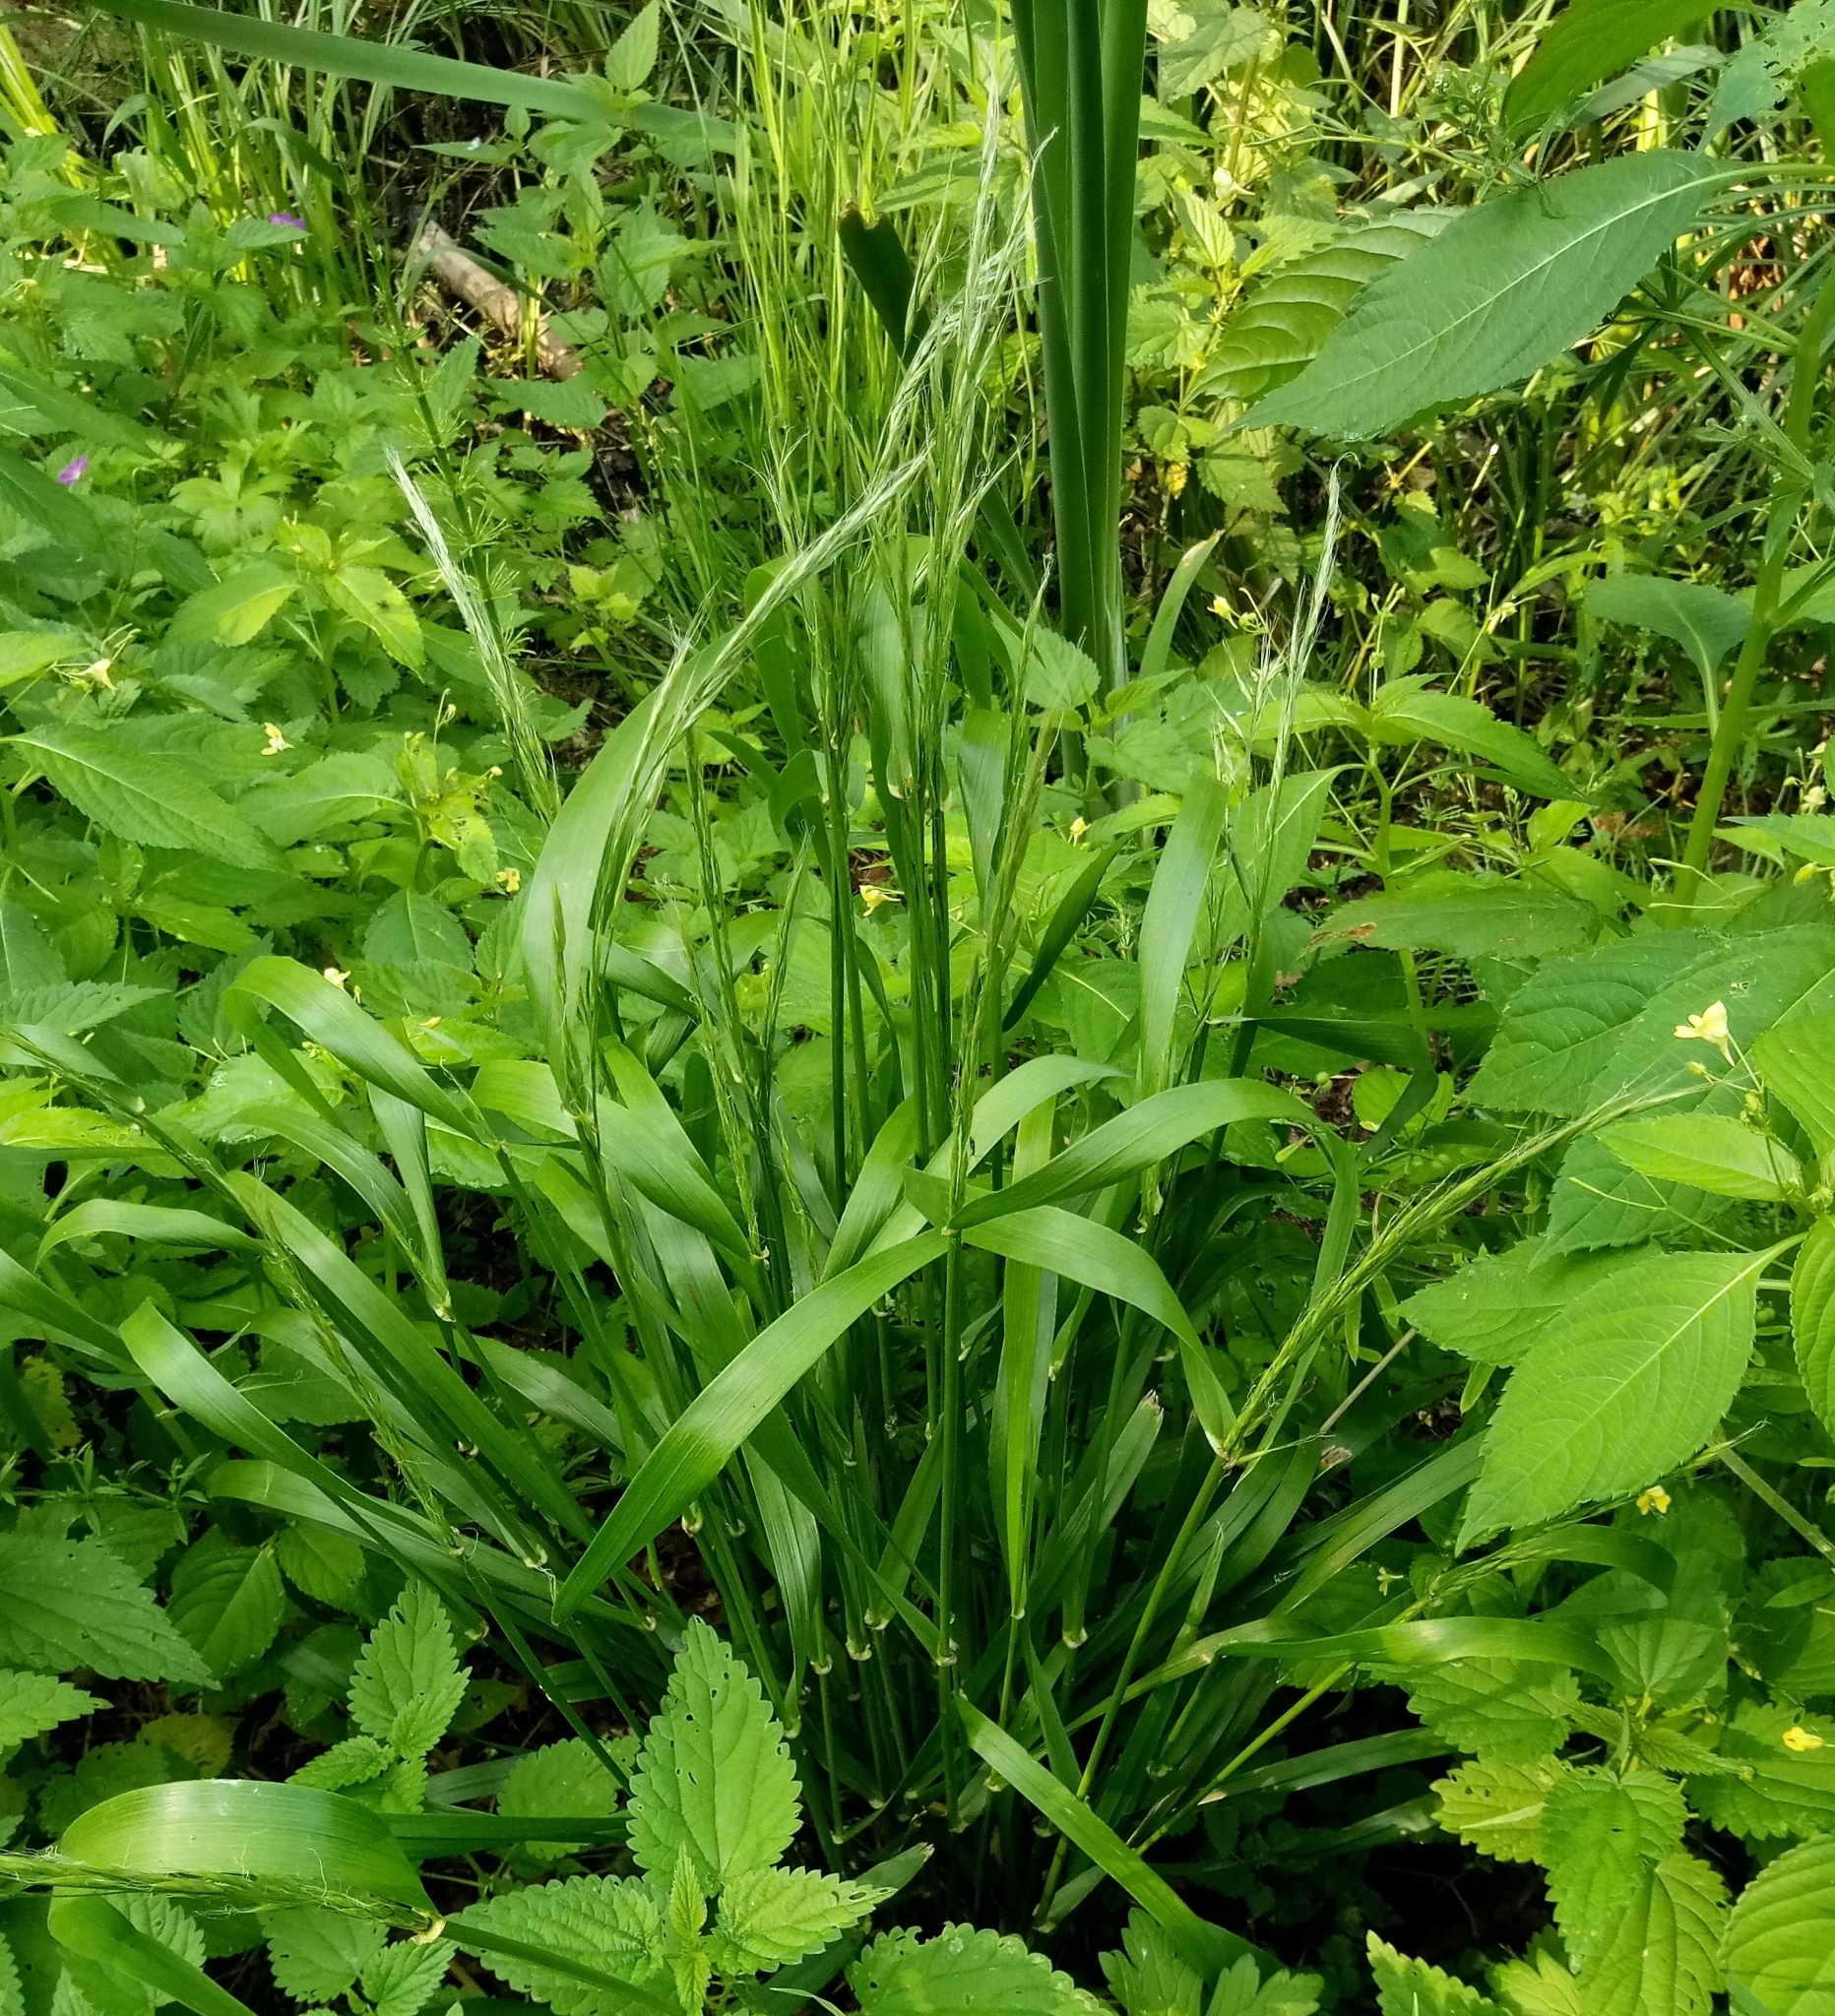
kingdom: Plantae
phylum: Tracheophyta
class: Liliopsida
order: Poales
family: Poaceae
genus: Lolium
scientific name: Lolium giganteum
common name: Giant fescue
